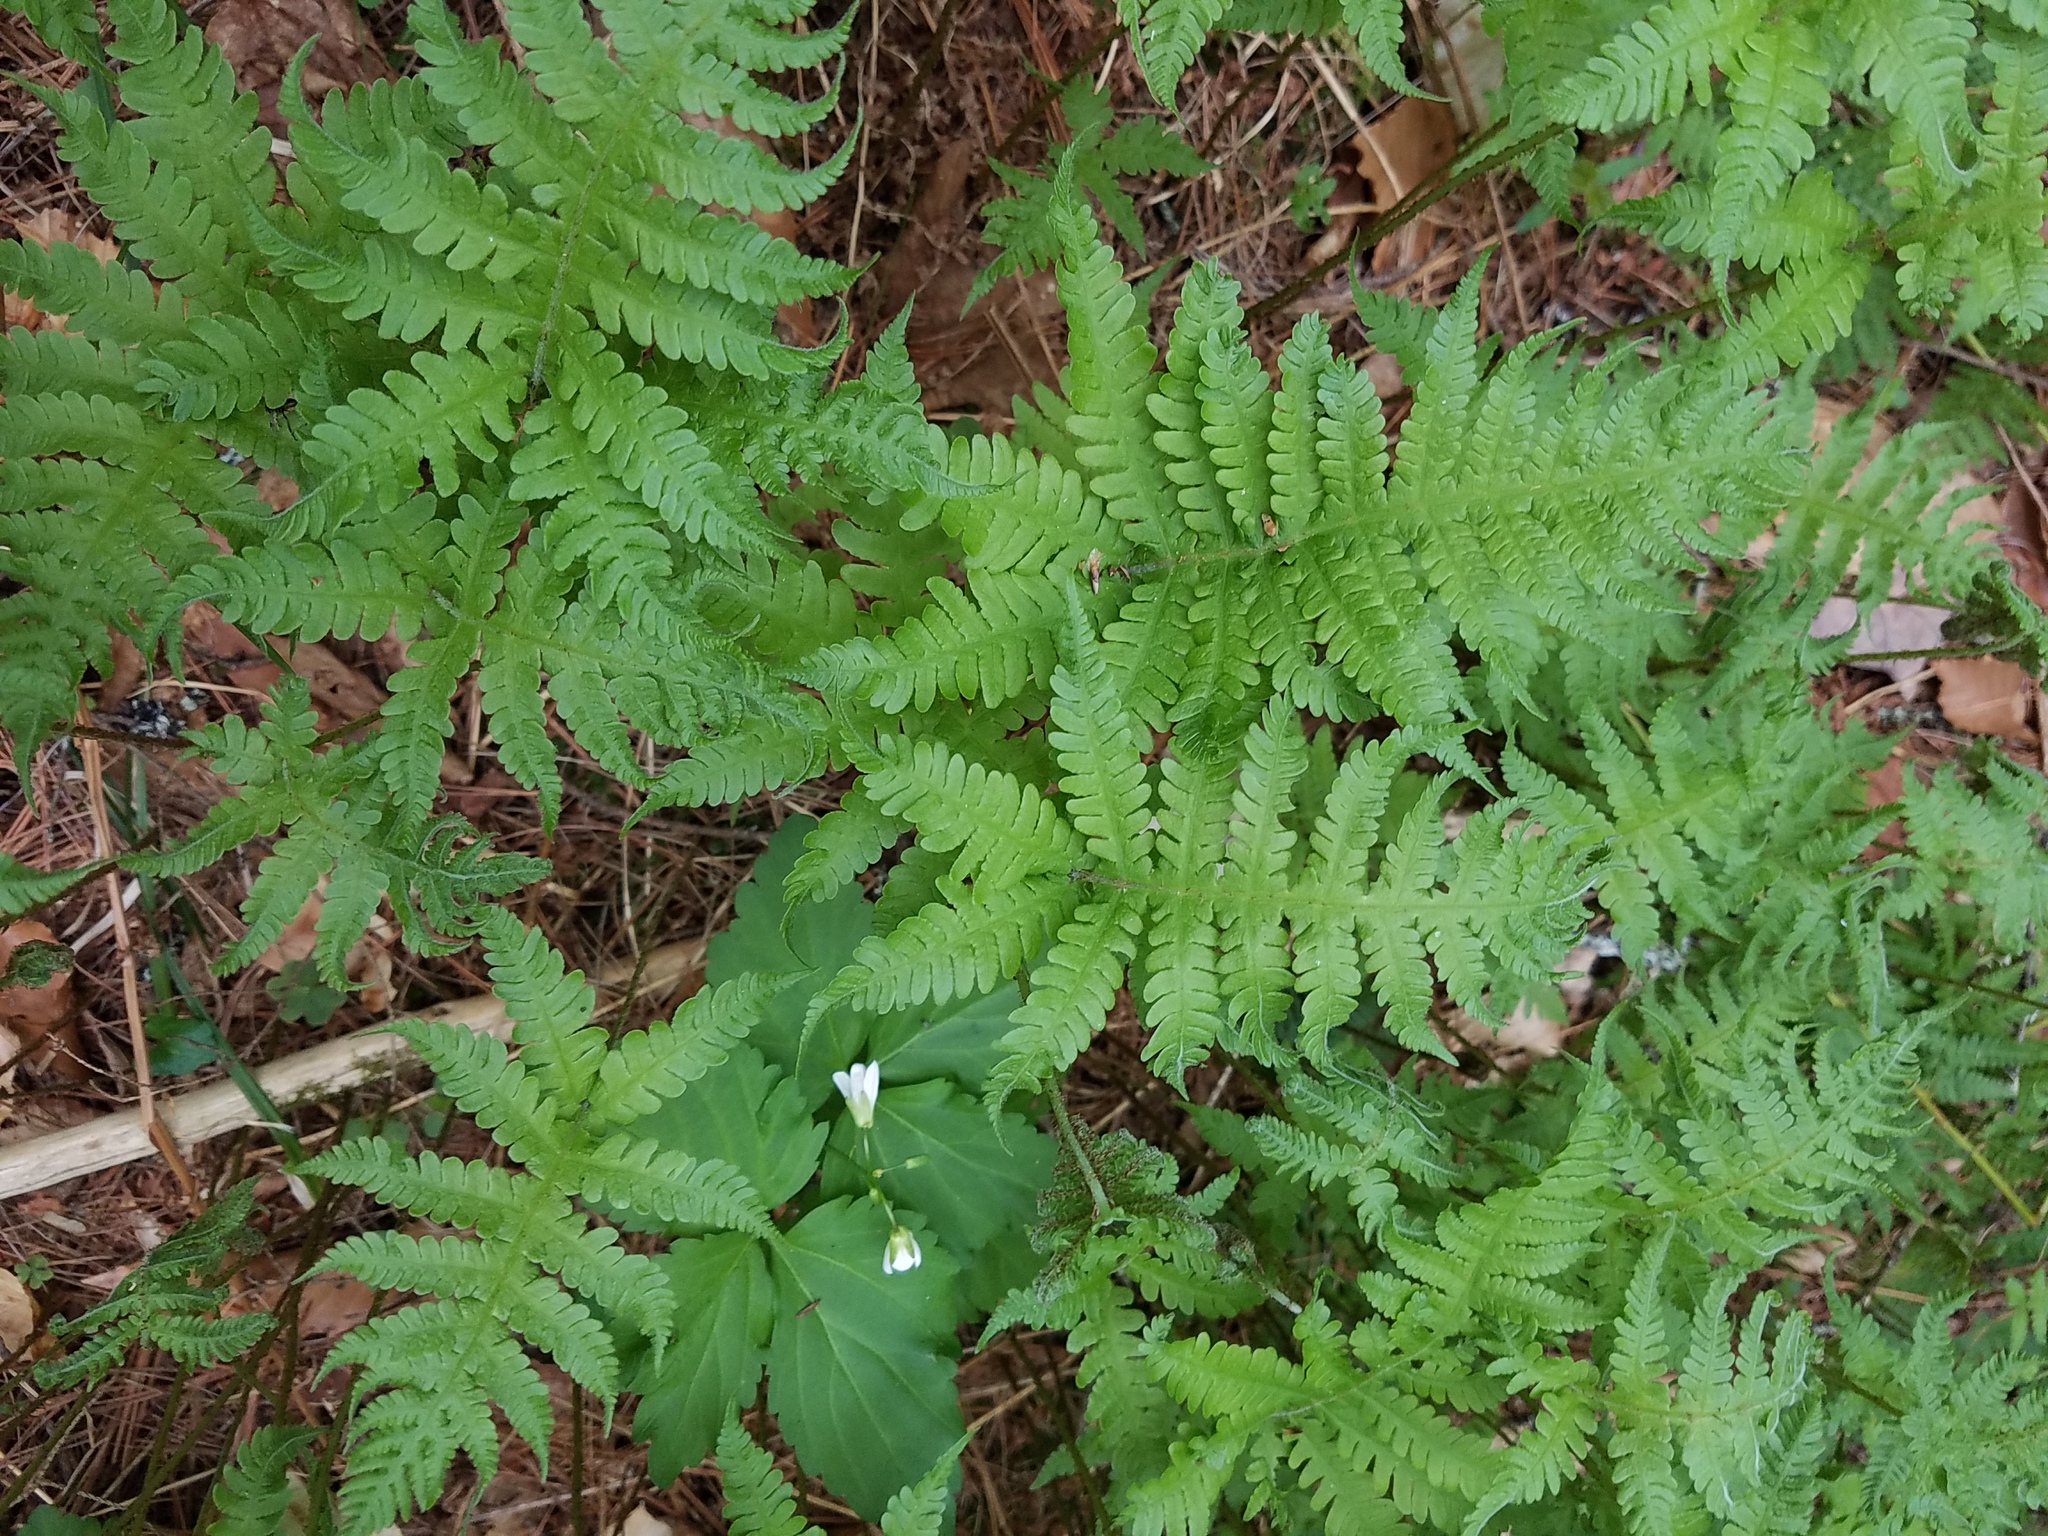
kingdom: Plantae
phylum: Tracheophyta
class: Polypodiopsida
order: Polypodiales
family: Thelypteridaceae
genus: Phegopteris
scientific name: Phegopteris connectilis
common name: Beech fern
